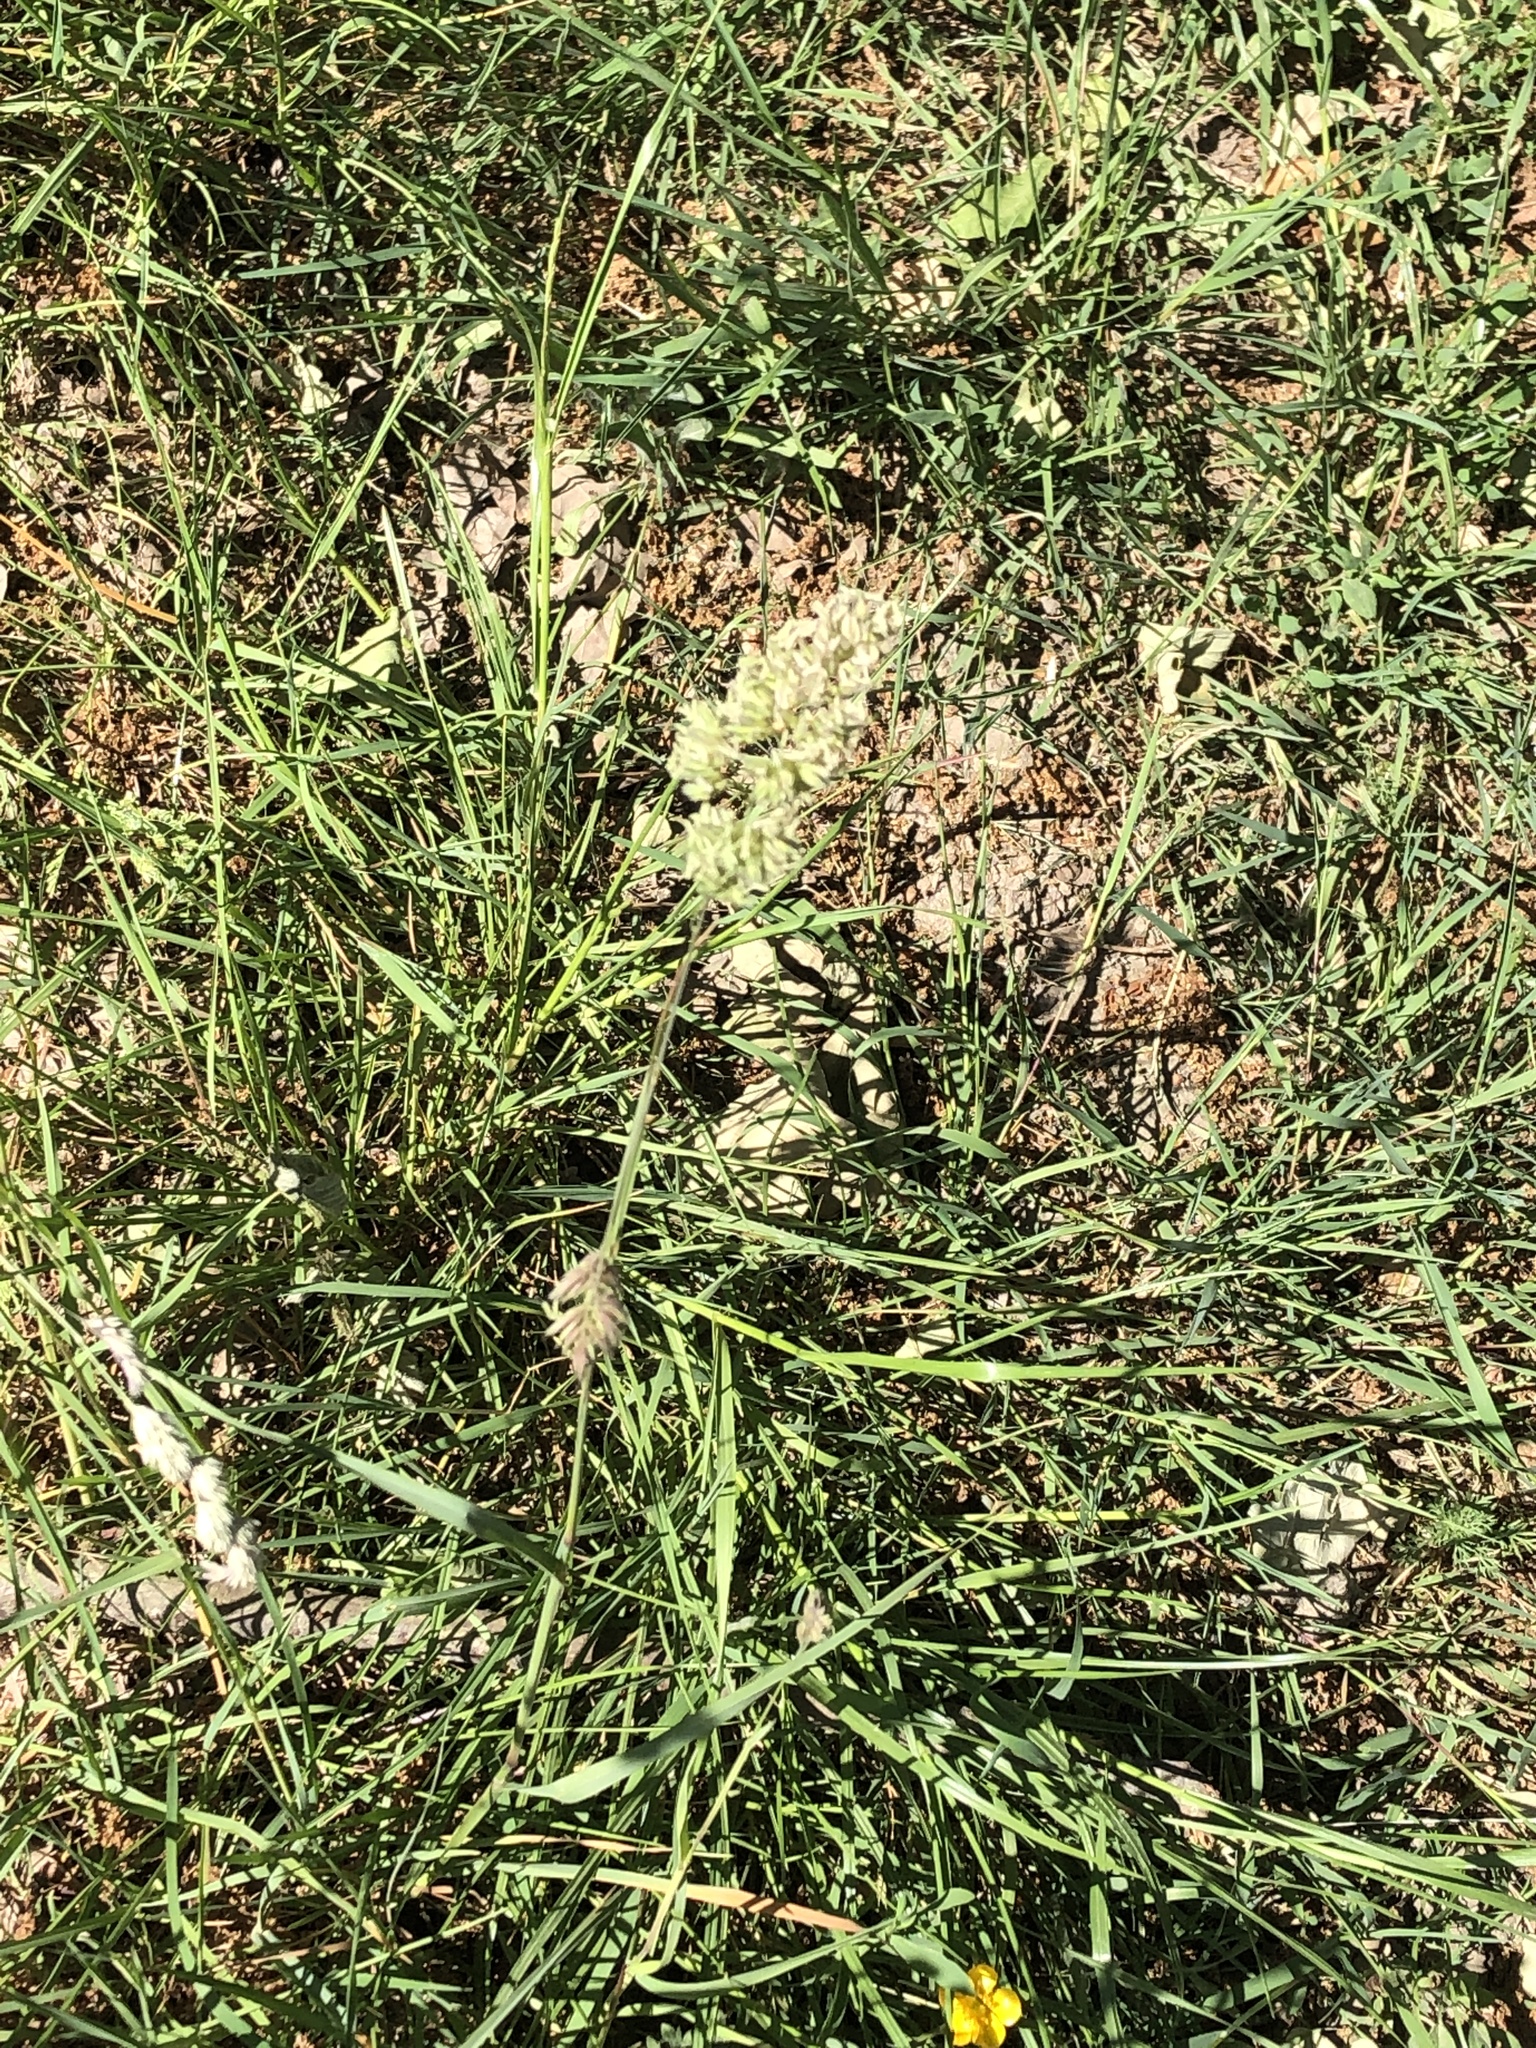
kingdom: Plantae
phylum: Tracheophyta
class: Liliopsida
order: Poales
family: Poaceae
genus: Dactylis
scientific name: Dactylis glomerata
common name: Orchardgrass
